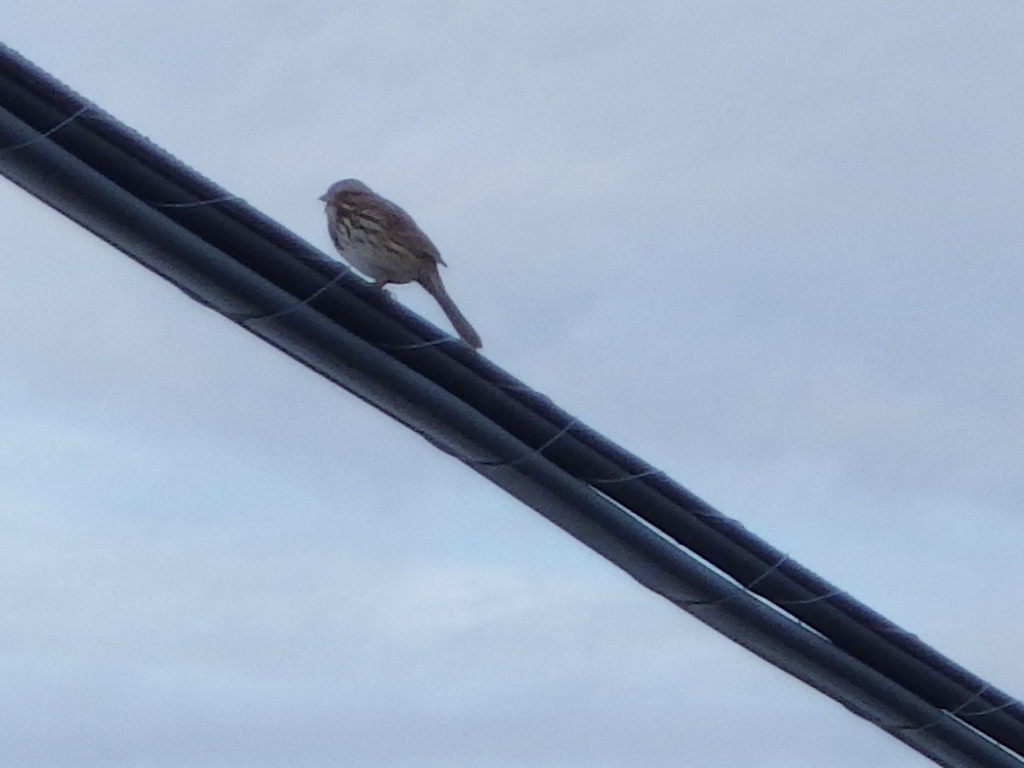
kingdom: Animalia
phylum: Chordata
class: Aves
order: Passeriformes
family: Passerellidae
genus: Melospiza
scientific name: Melospiza melodia
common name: Song sparrow
